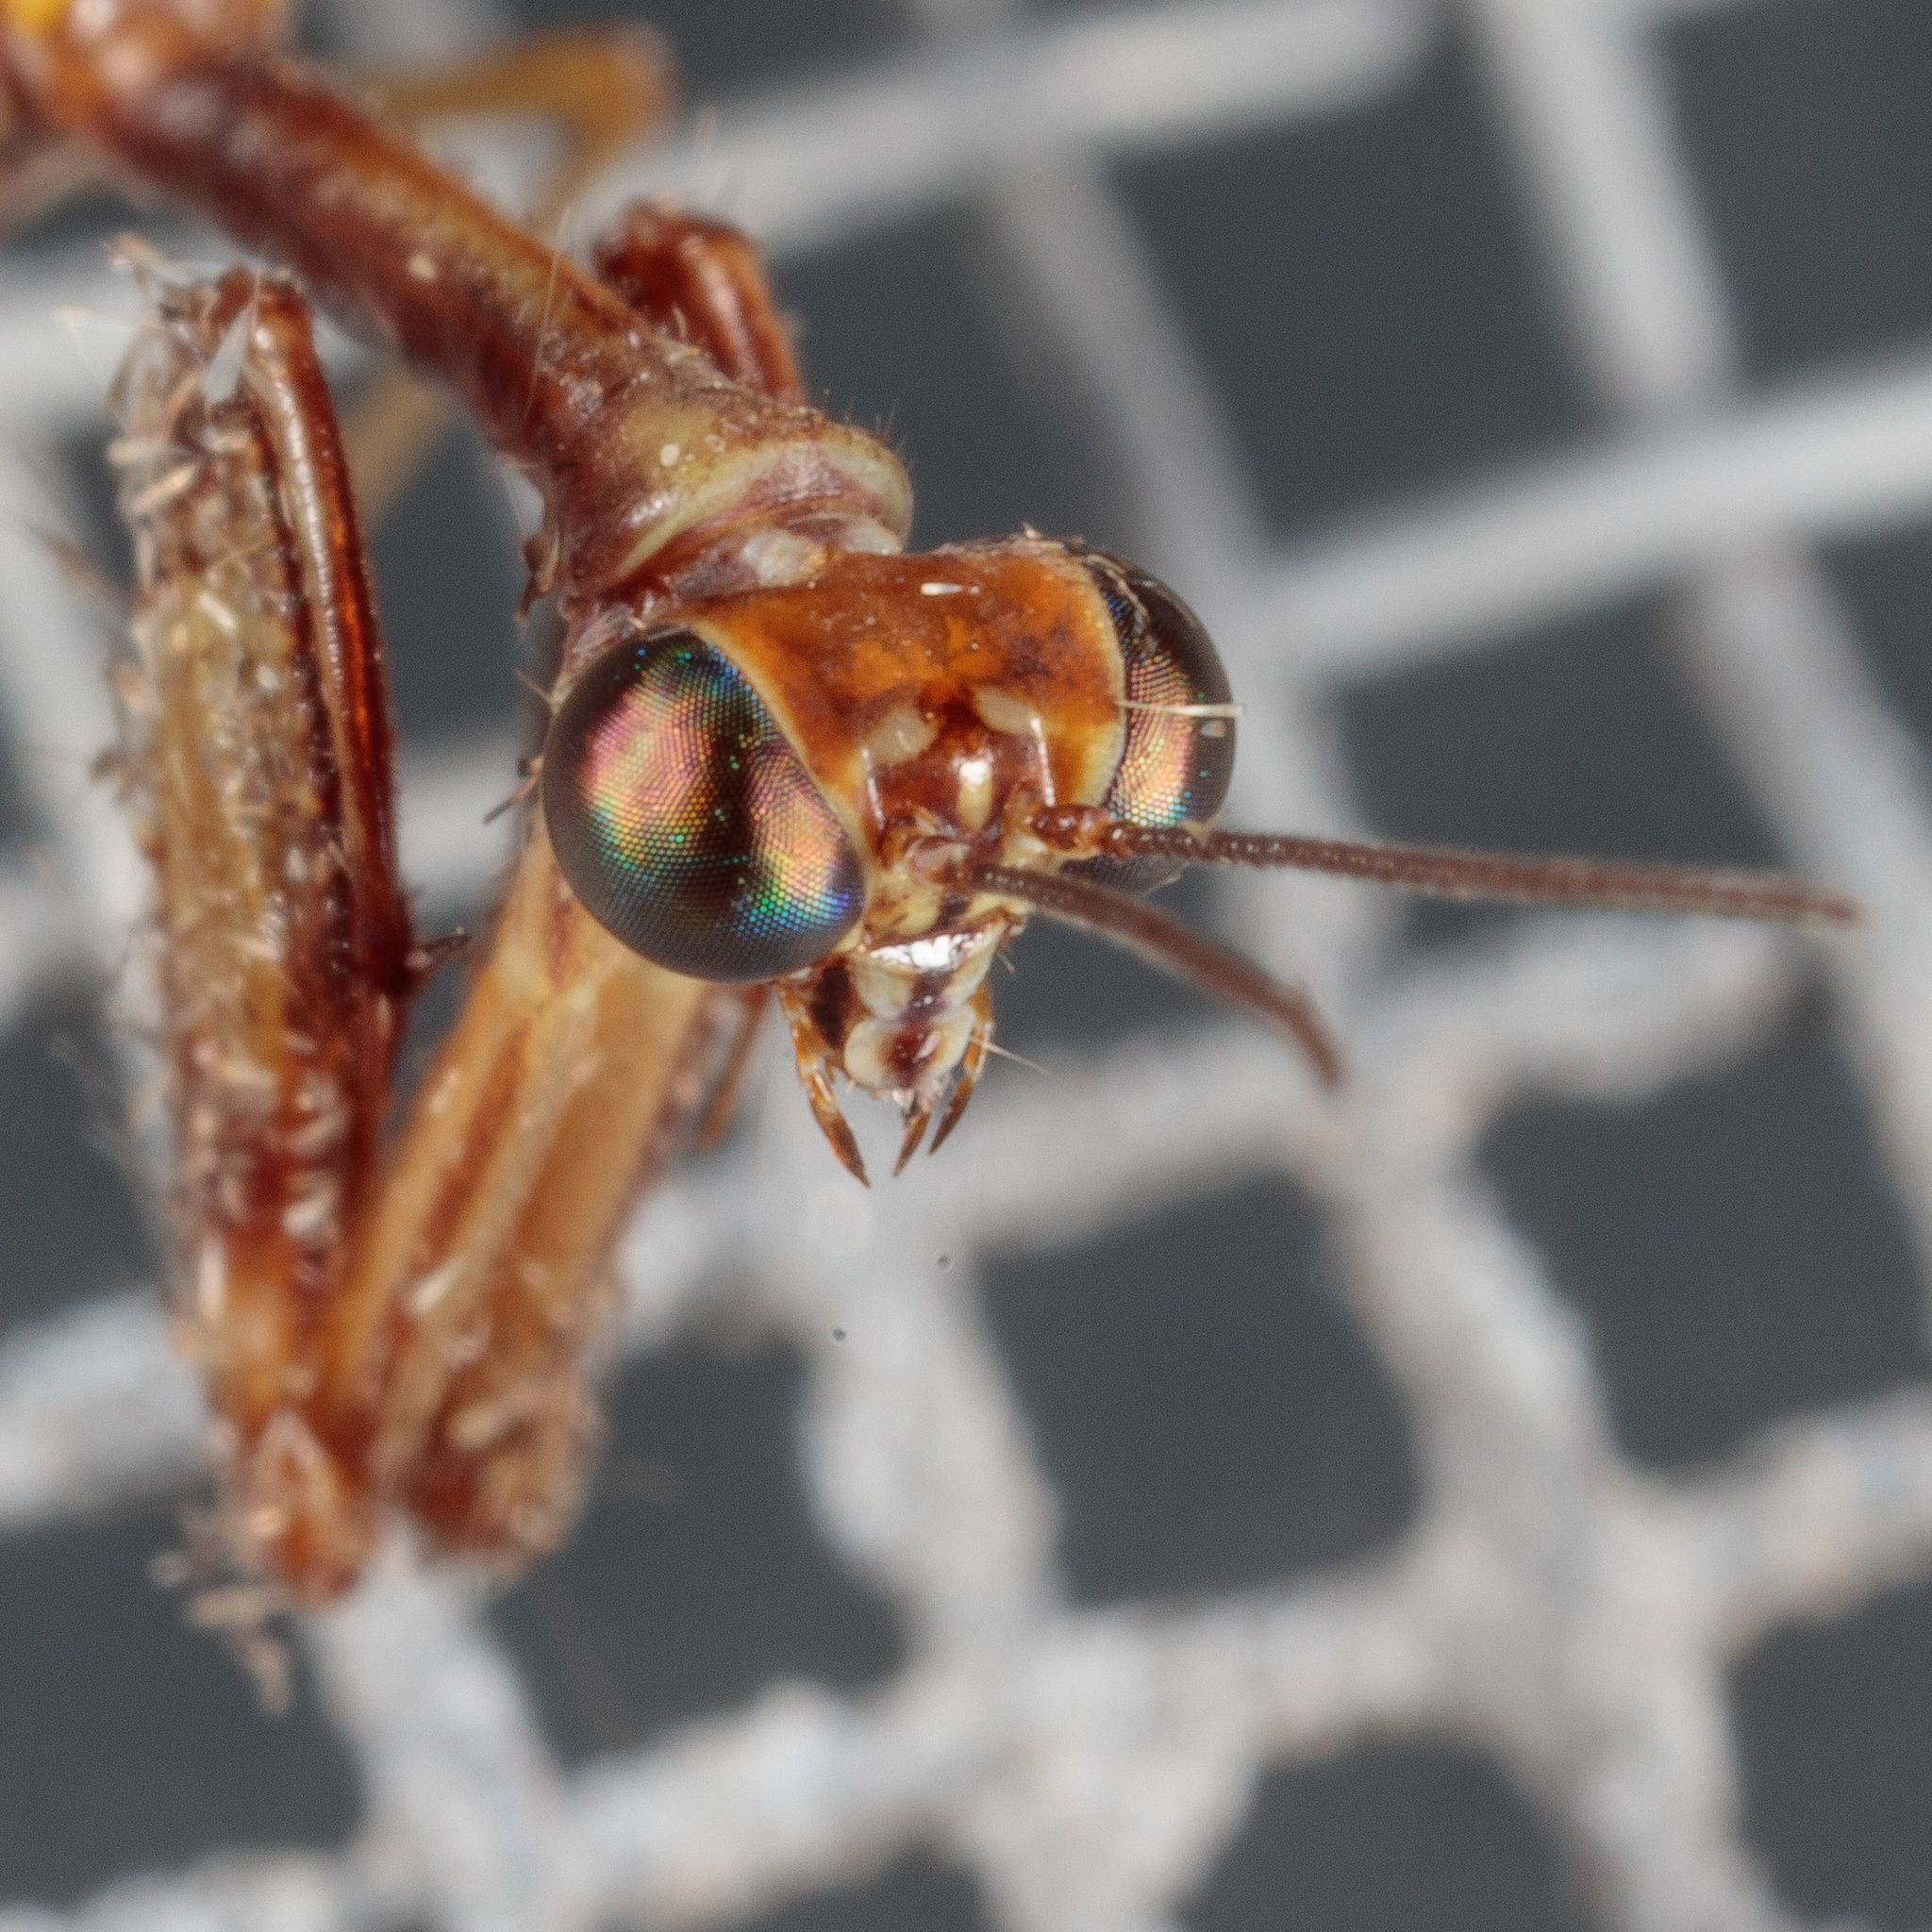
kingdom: Animalia
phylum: Arthropoda
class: Insecta
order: Neuroptera
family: Mantispidae
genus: Leptomantispa
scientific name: Leptomantispa pulchella
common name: Stevens's mantidfly
